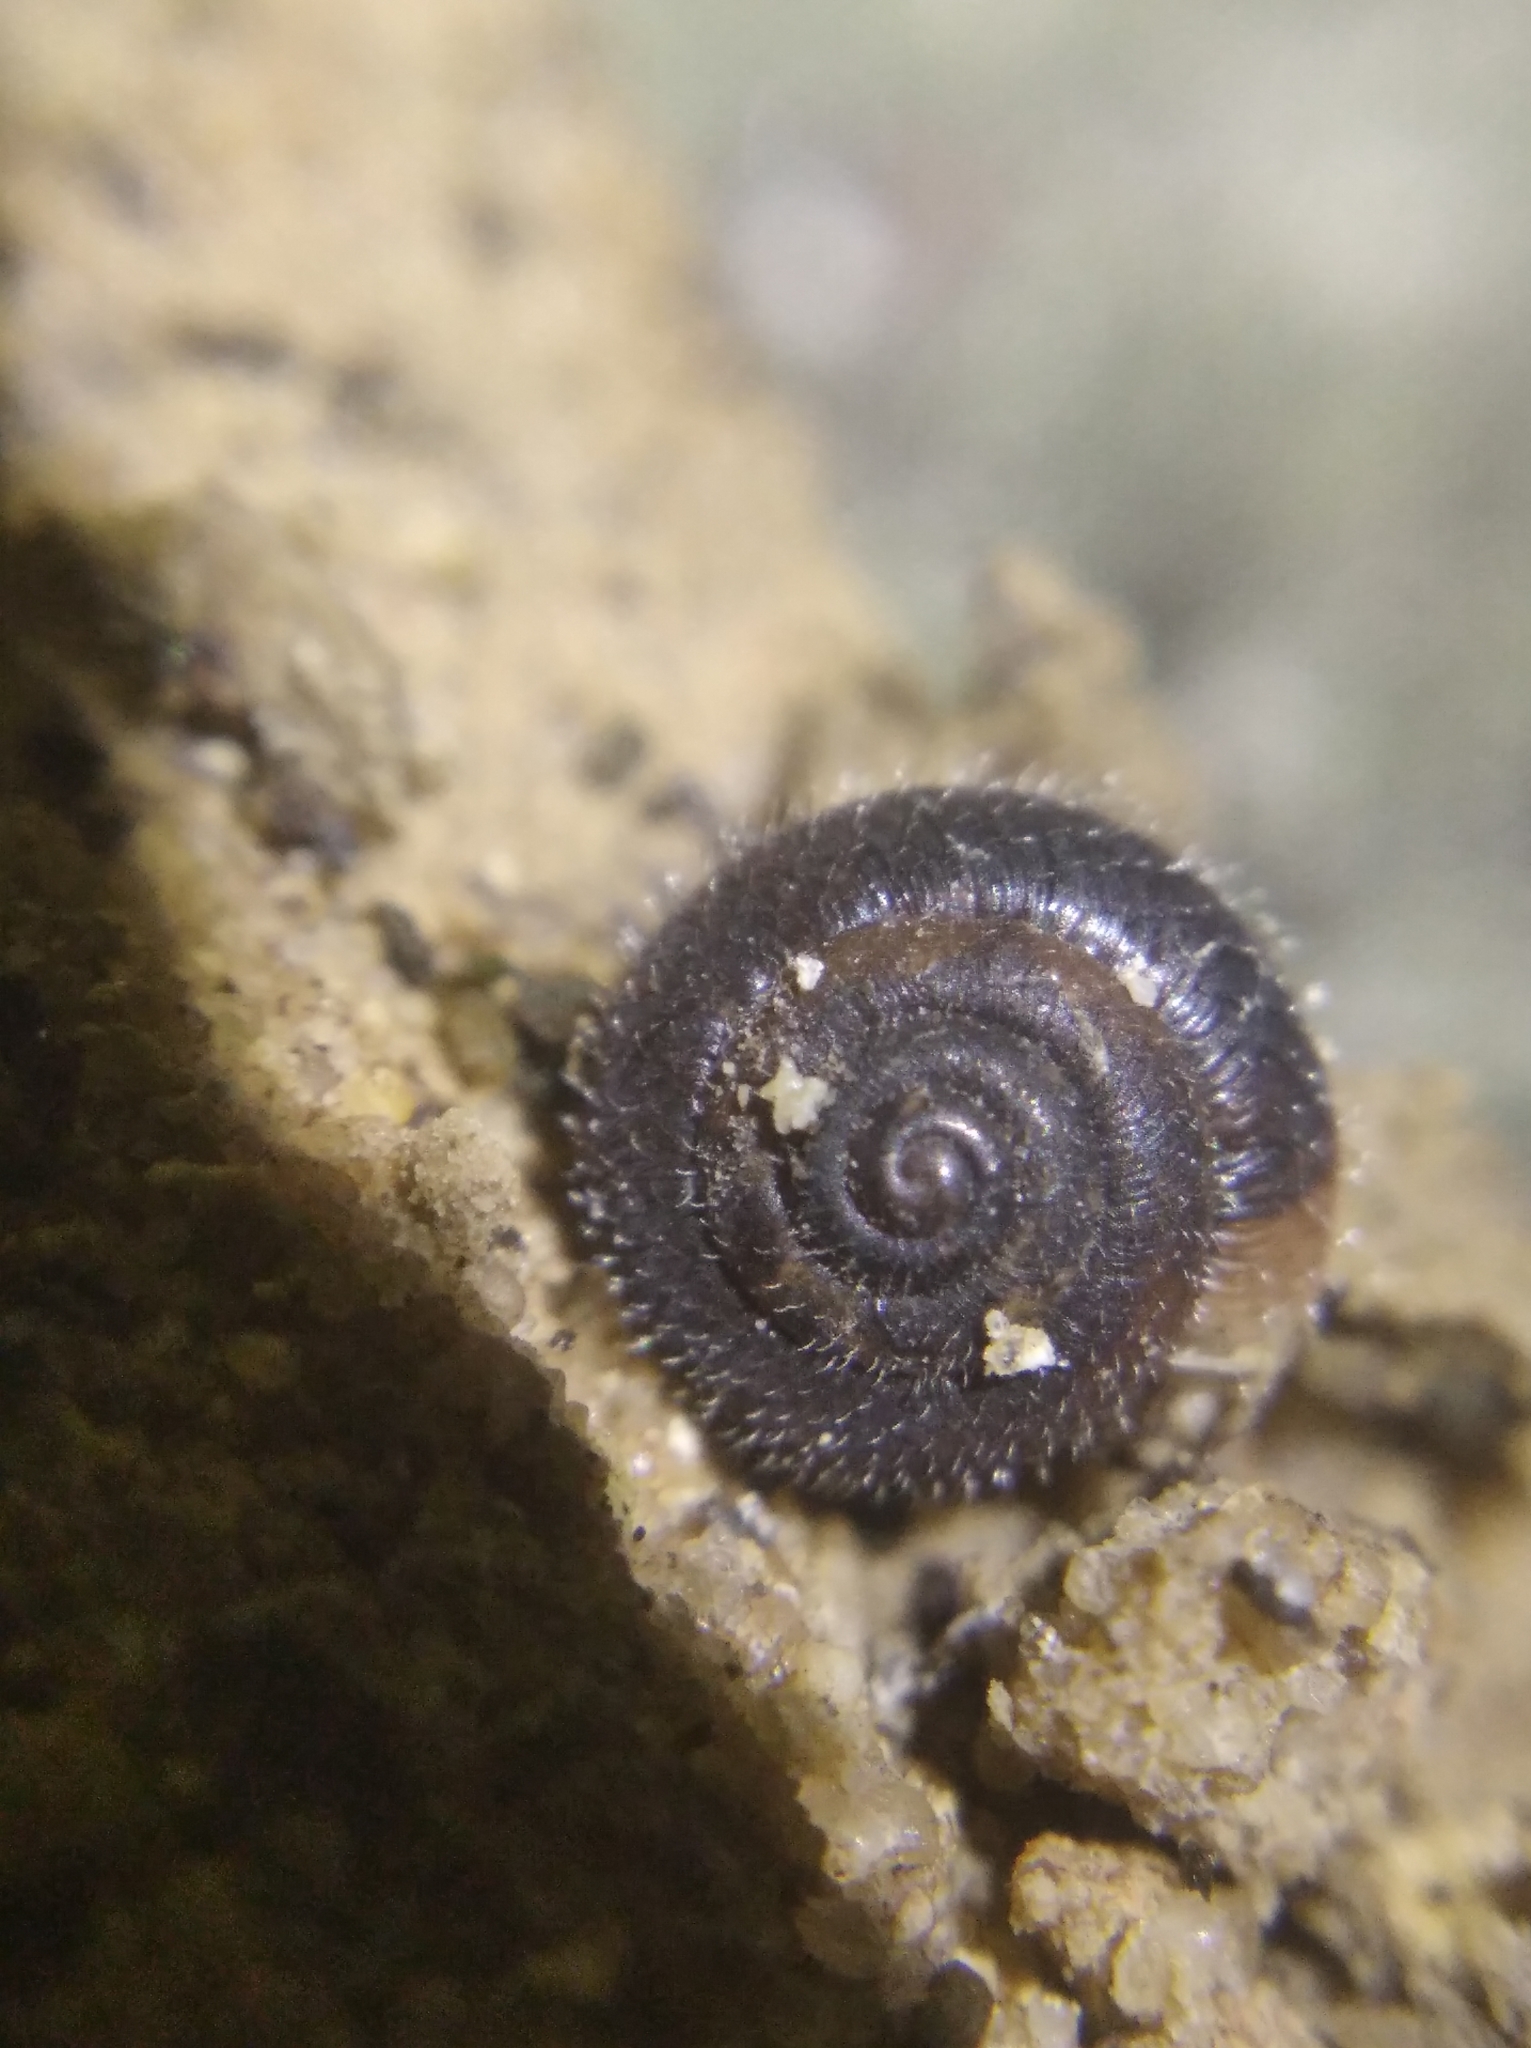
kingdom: Animalia
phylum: Mollusca
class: Gastropoda
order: Stylommatophora
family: Hygromiidae
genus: Trochulus
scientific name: Trochulus hispidus
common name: Hairy snail
